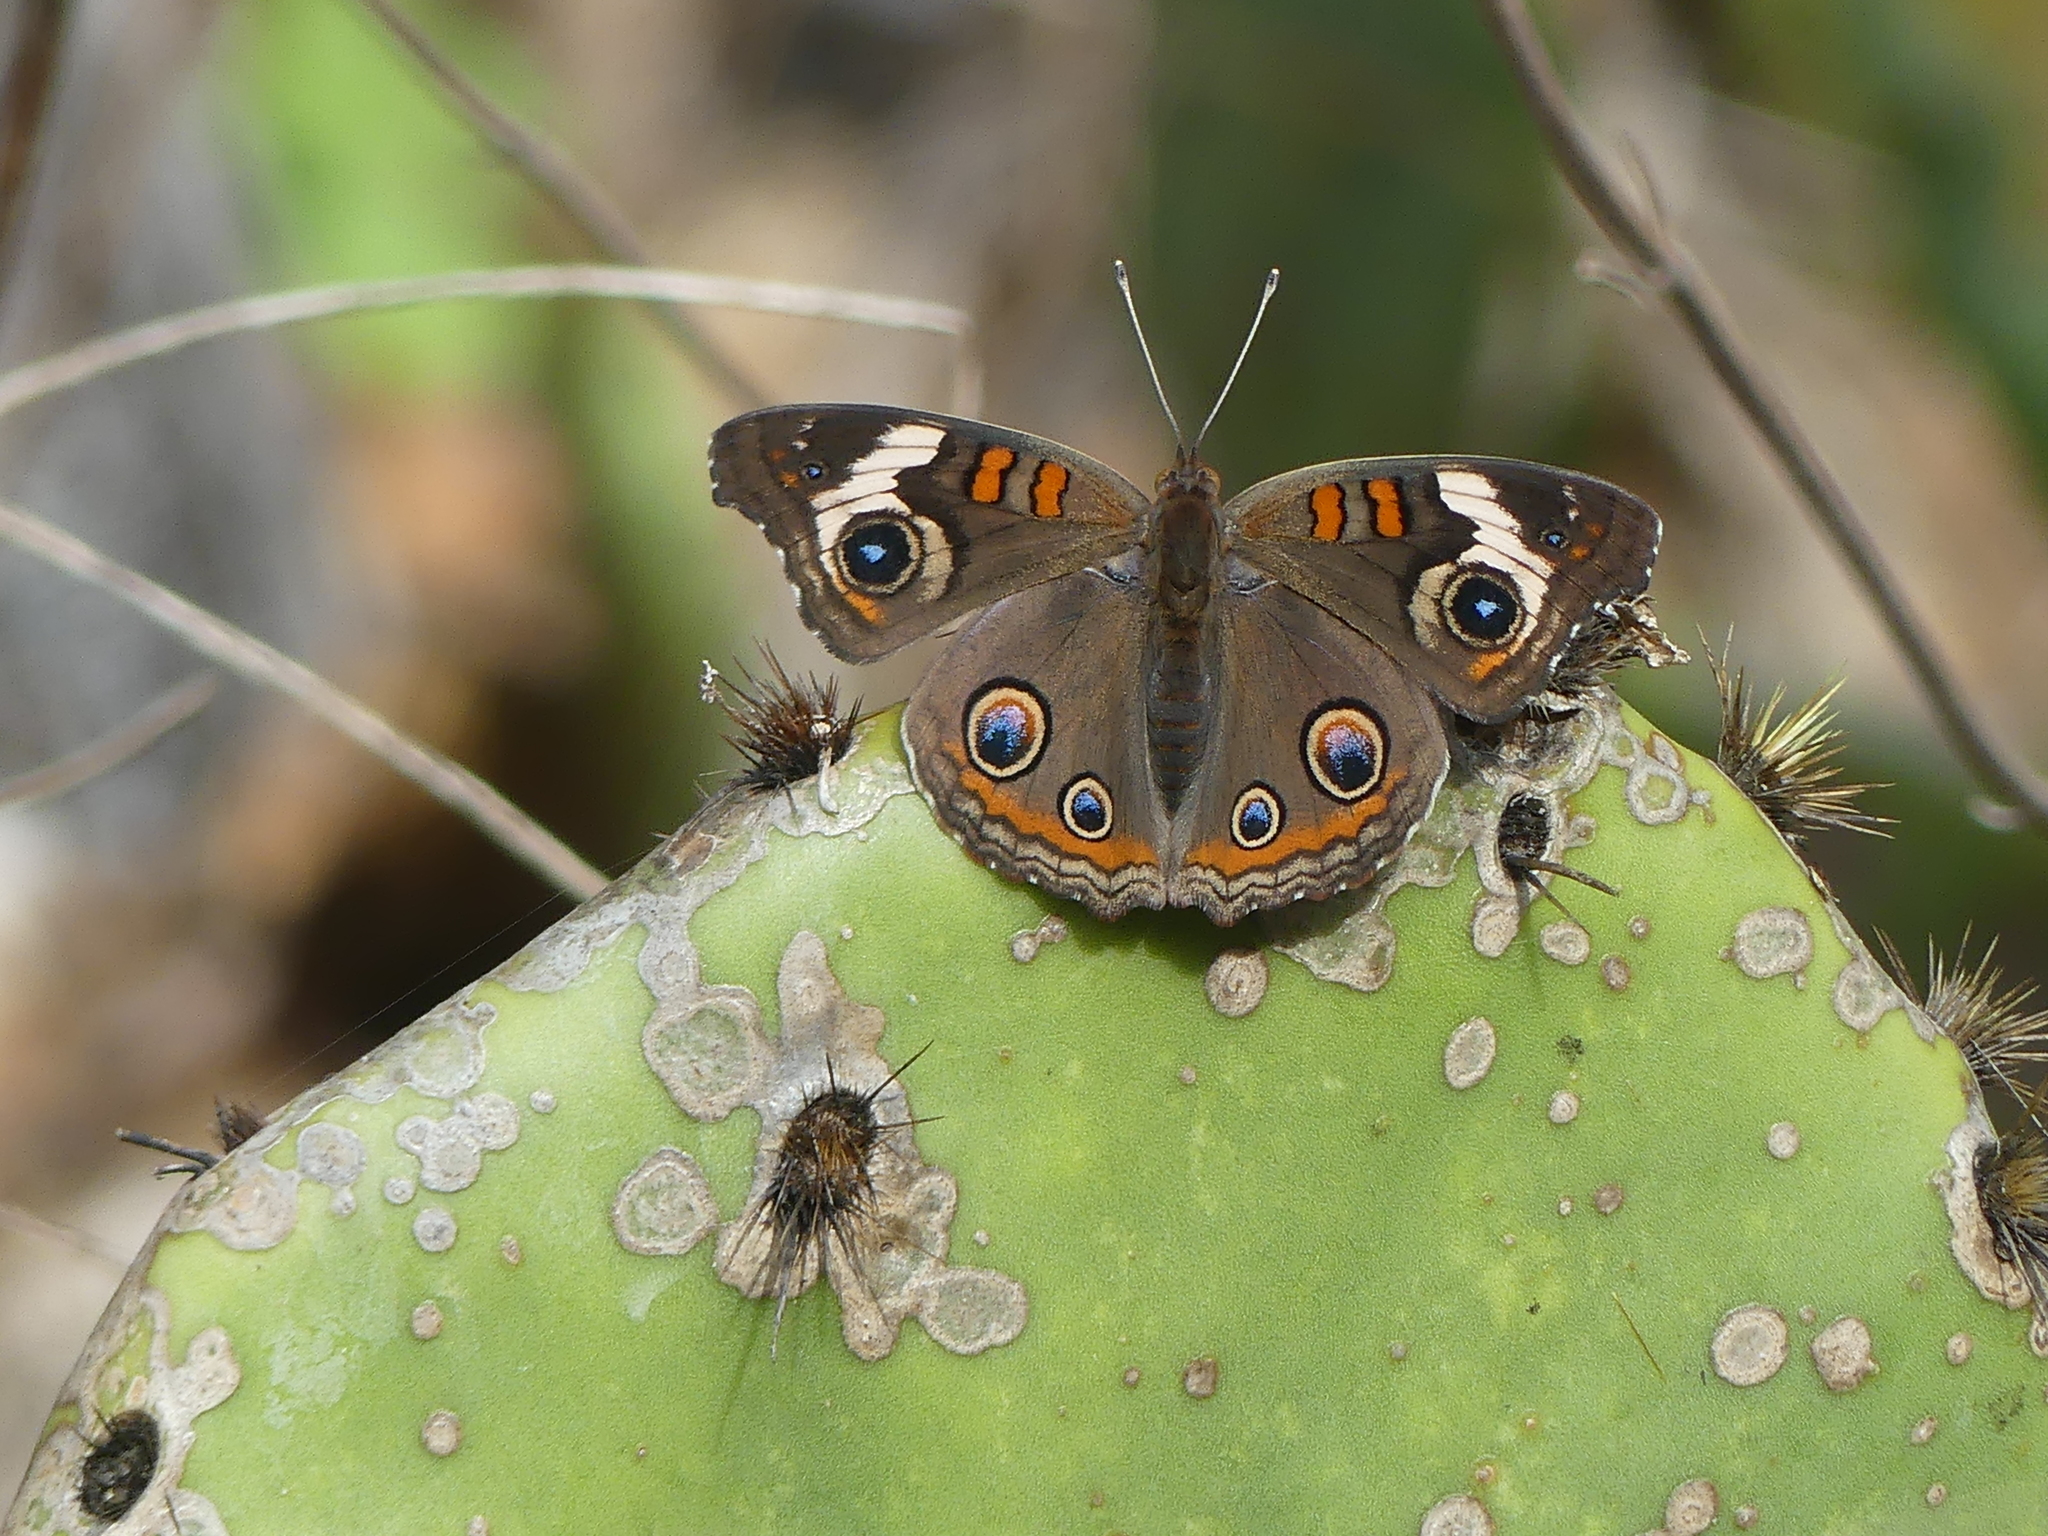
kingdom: Animalia
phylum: Arthropoda
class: Insecta
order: Lepidoptera
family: Nymphalidae
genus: Junonia
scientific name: Junonia coenia
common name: Common buckeye
